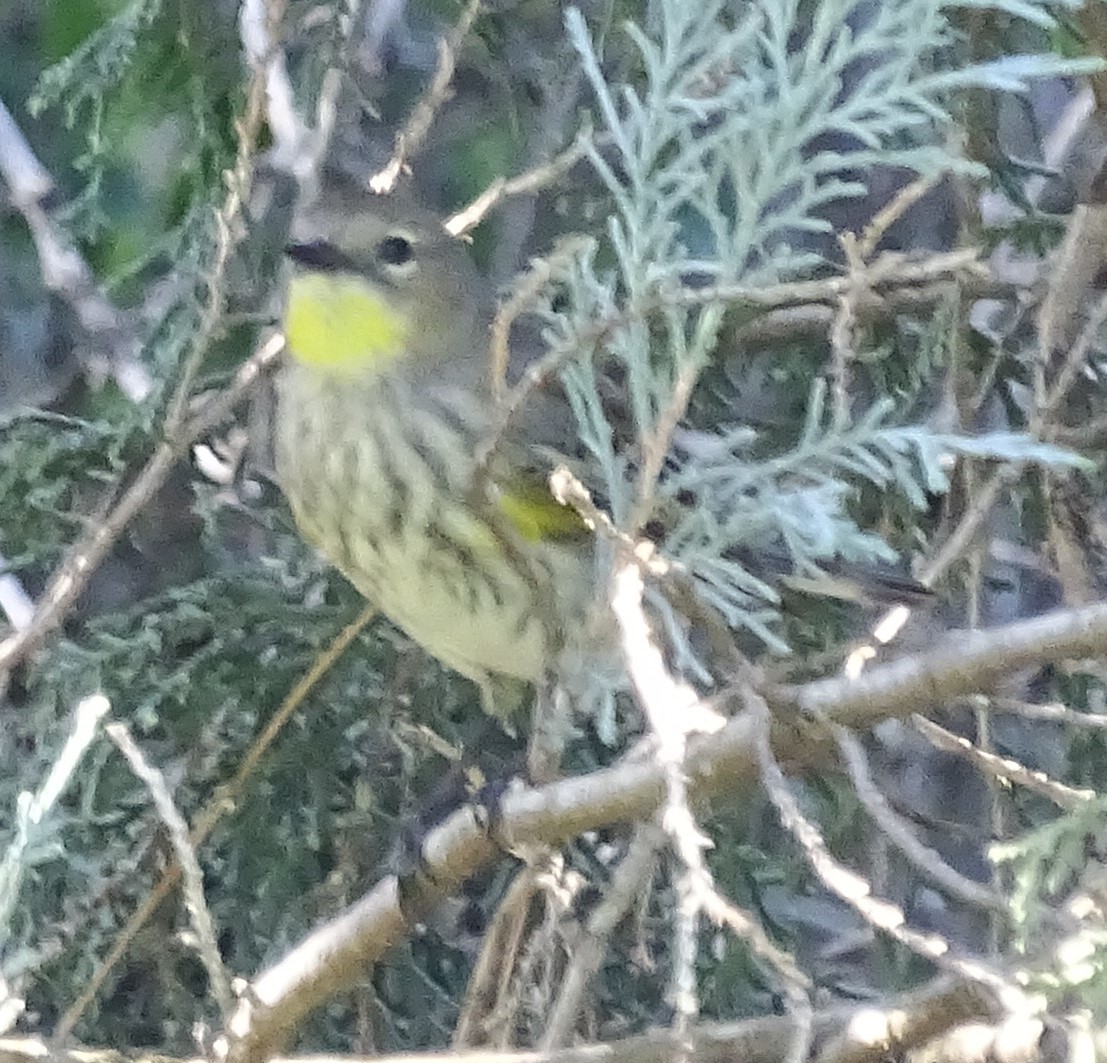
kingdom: Animalia
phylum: Chordata
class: Aves
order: Passeriformes
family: Parulidae
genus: Setophaga
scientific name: Setophaga coronata
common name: Myrtle warbler
